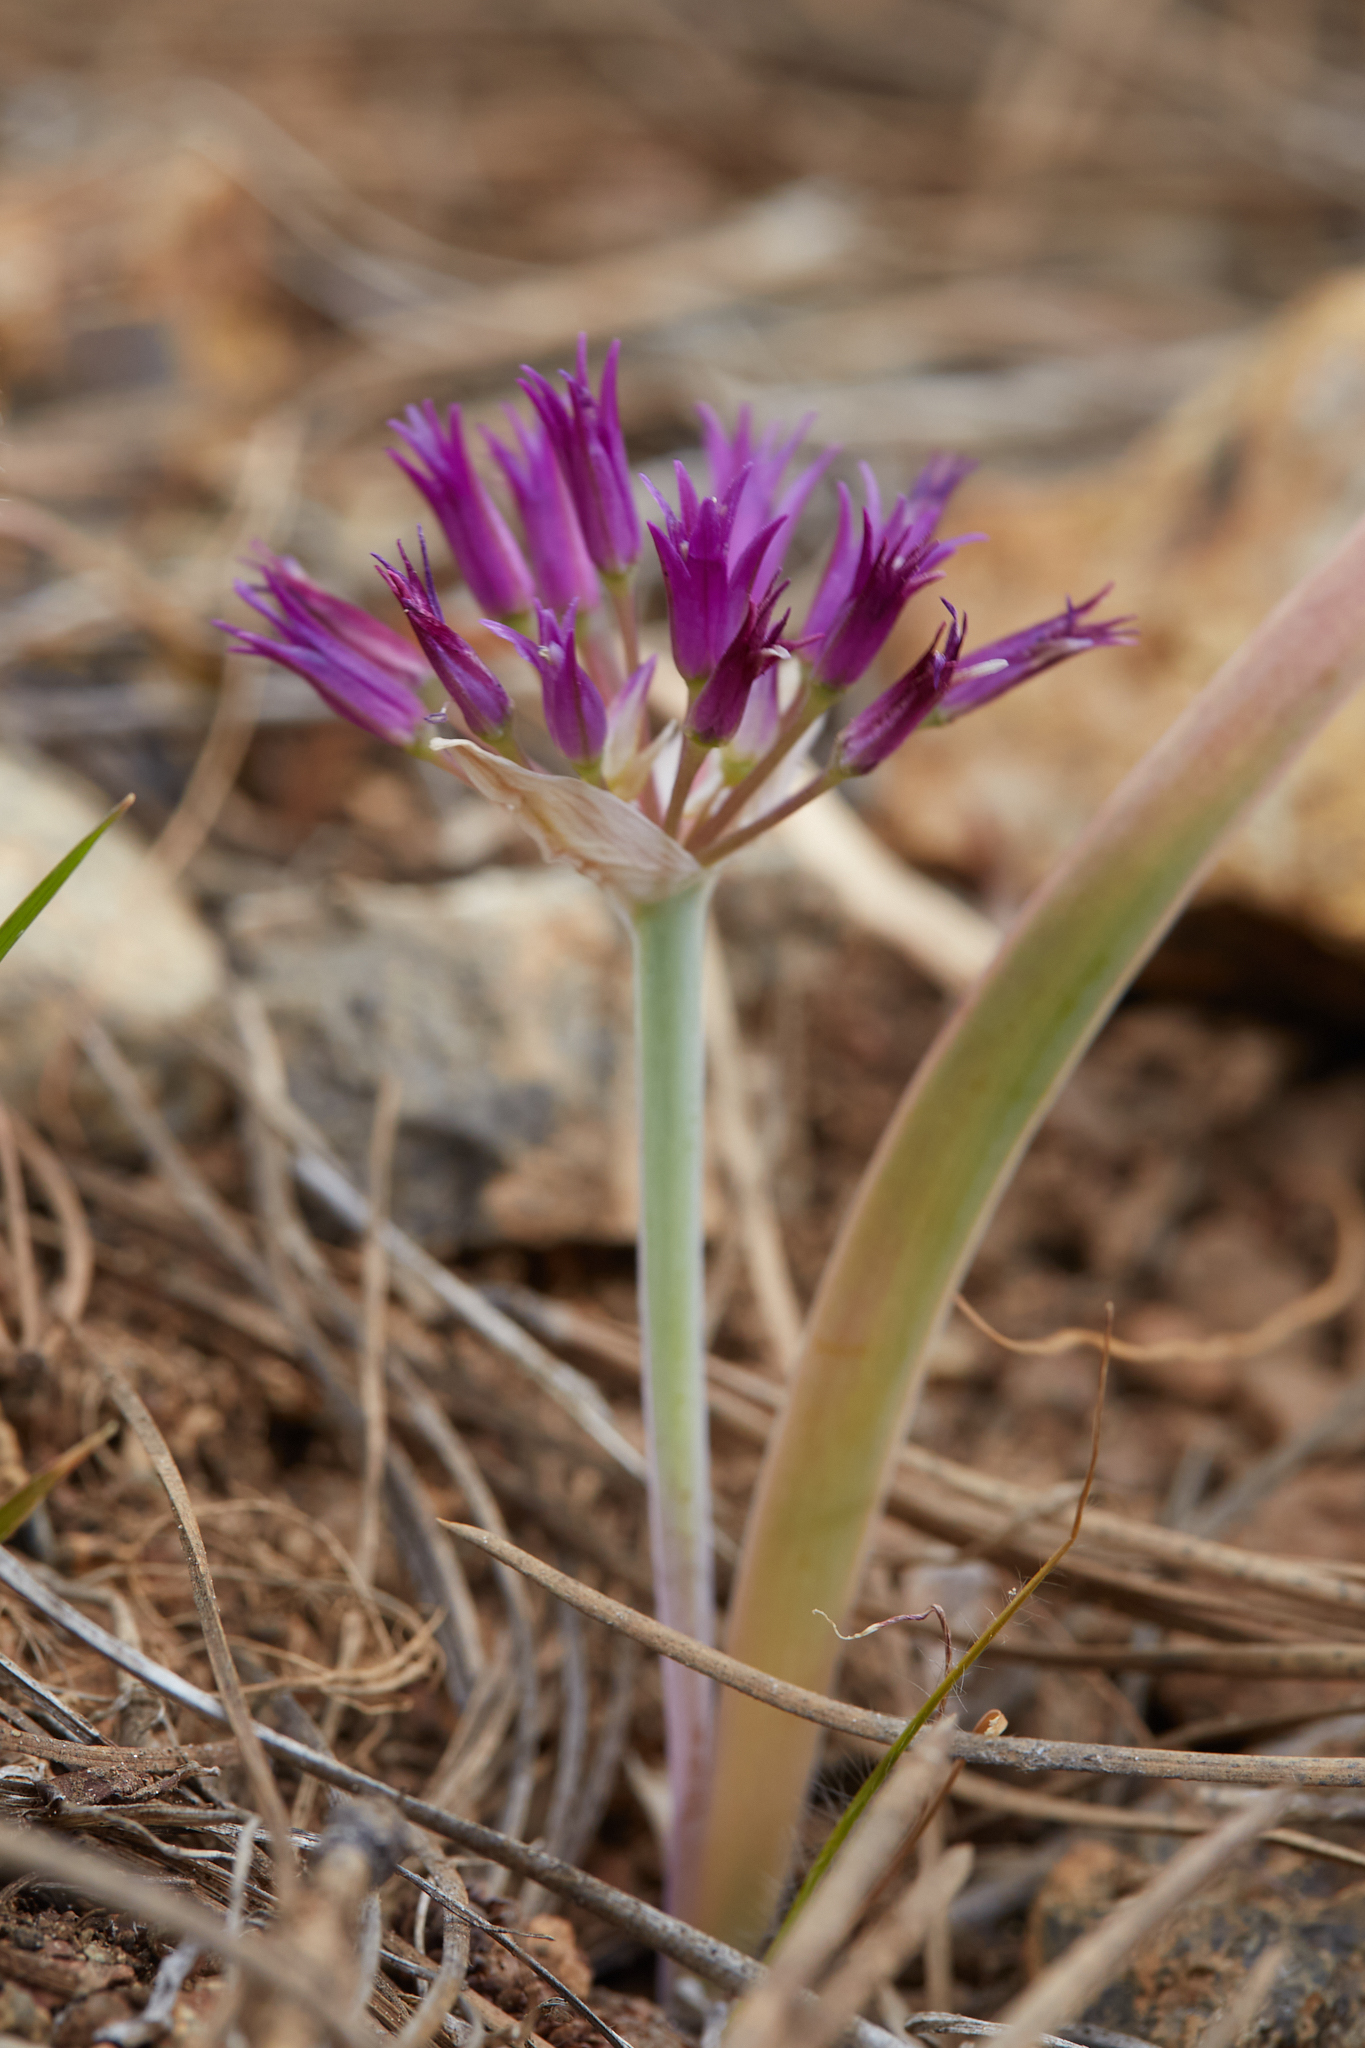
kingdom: Plantae
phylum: Tracheophyta
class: Liliopsida
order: Asparagales
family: Amaryllidaceae
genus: Allium
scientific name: Allium falcifolium
